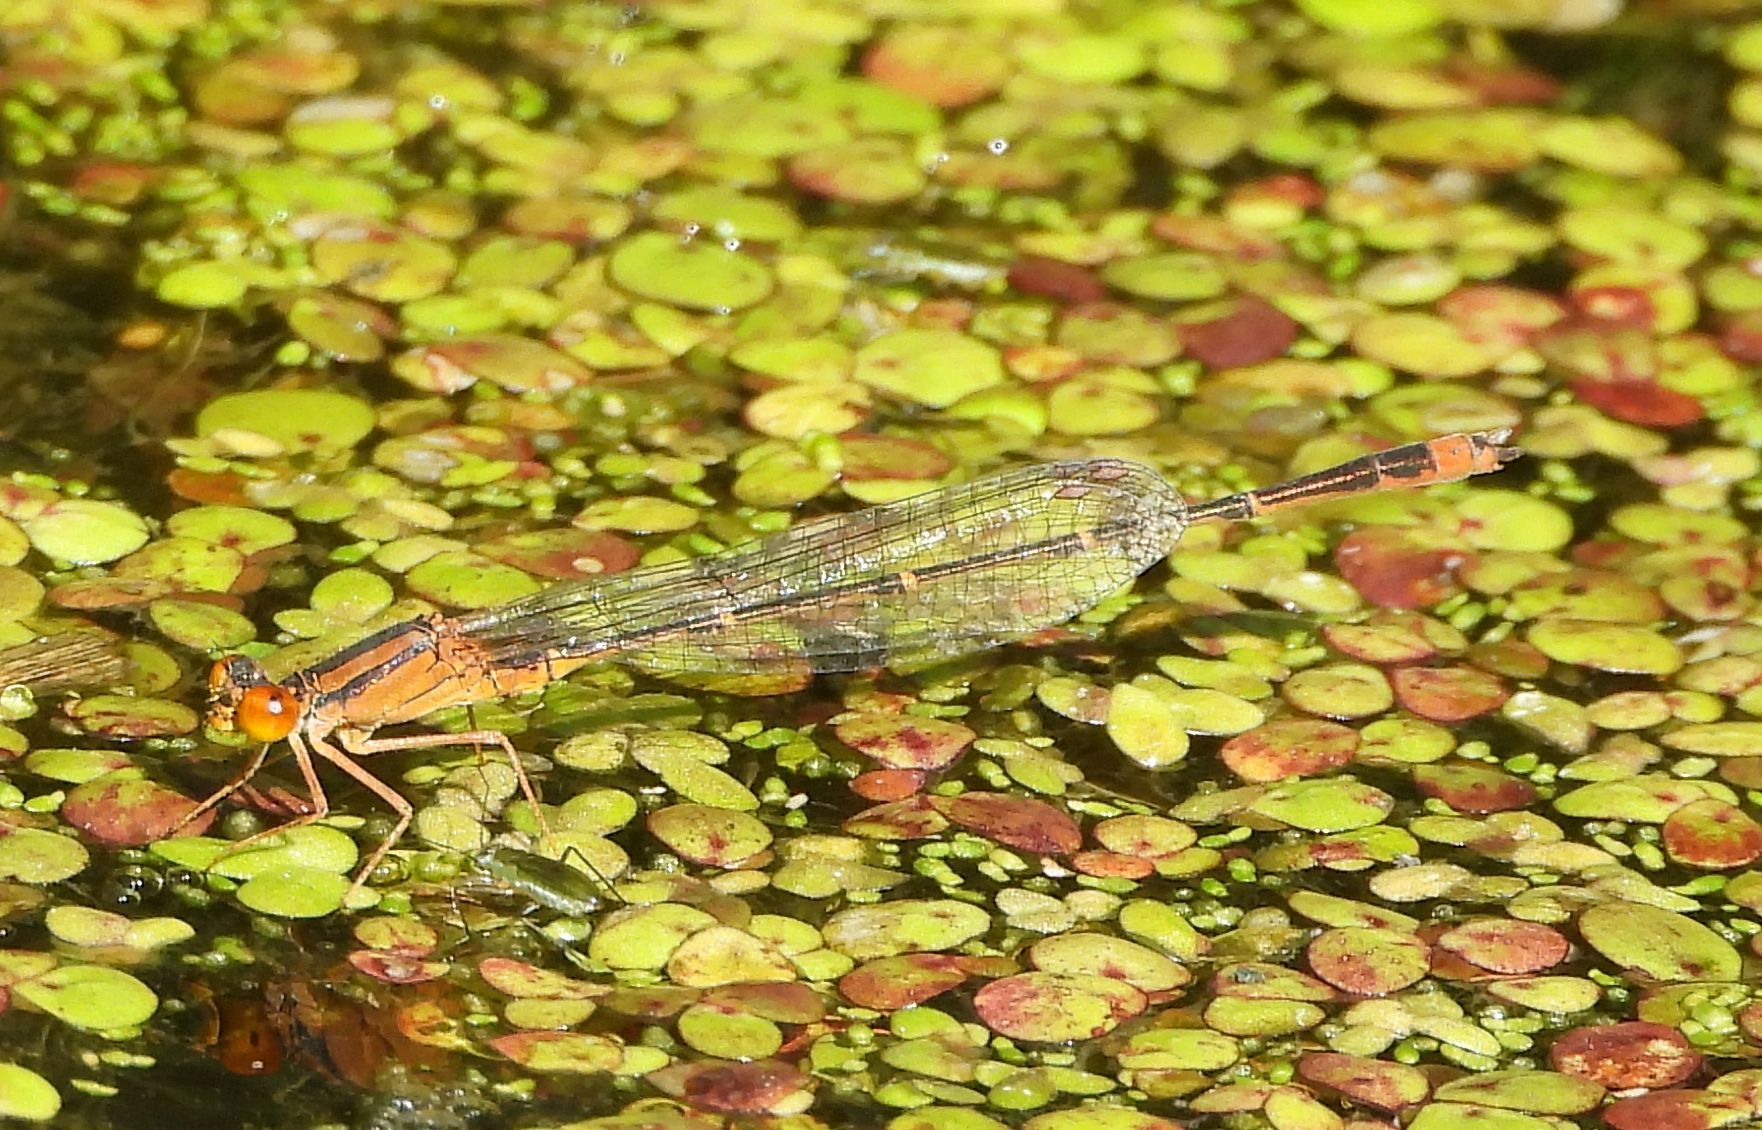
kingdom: Animalia
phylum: Arthropoda
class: Insecta
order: Odonata
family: Coenagrionidae
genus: Enallagma
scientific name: Enallagma signatum
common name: Orange bluet
